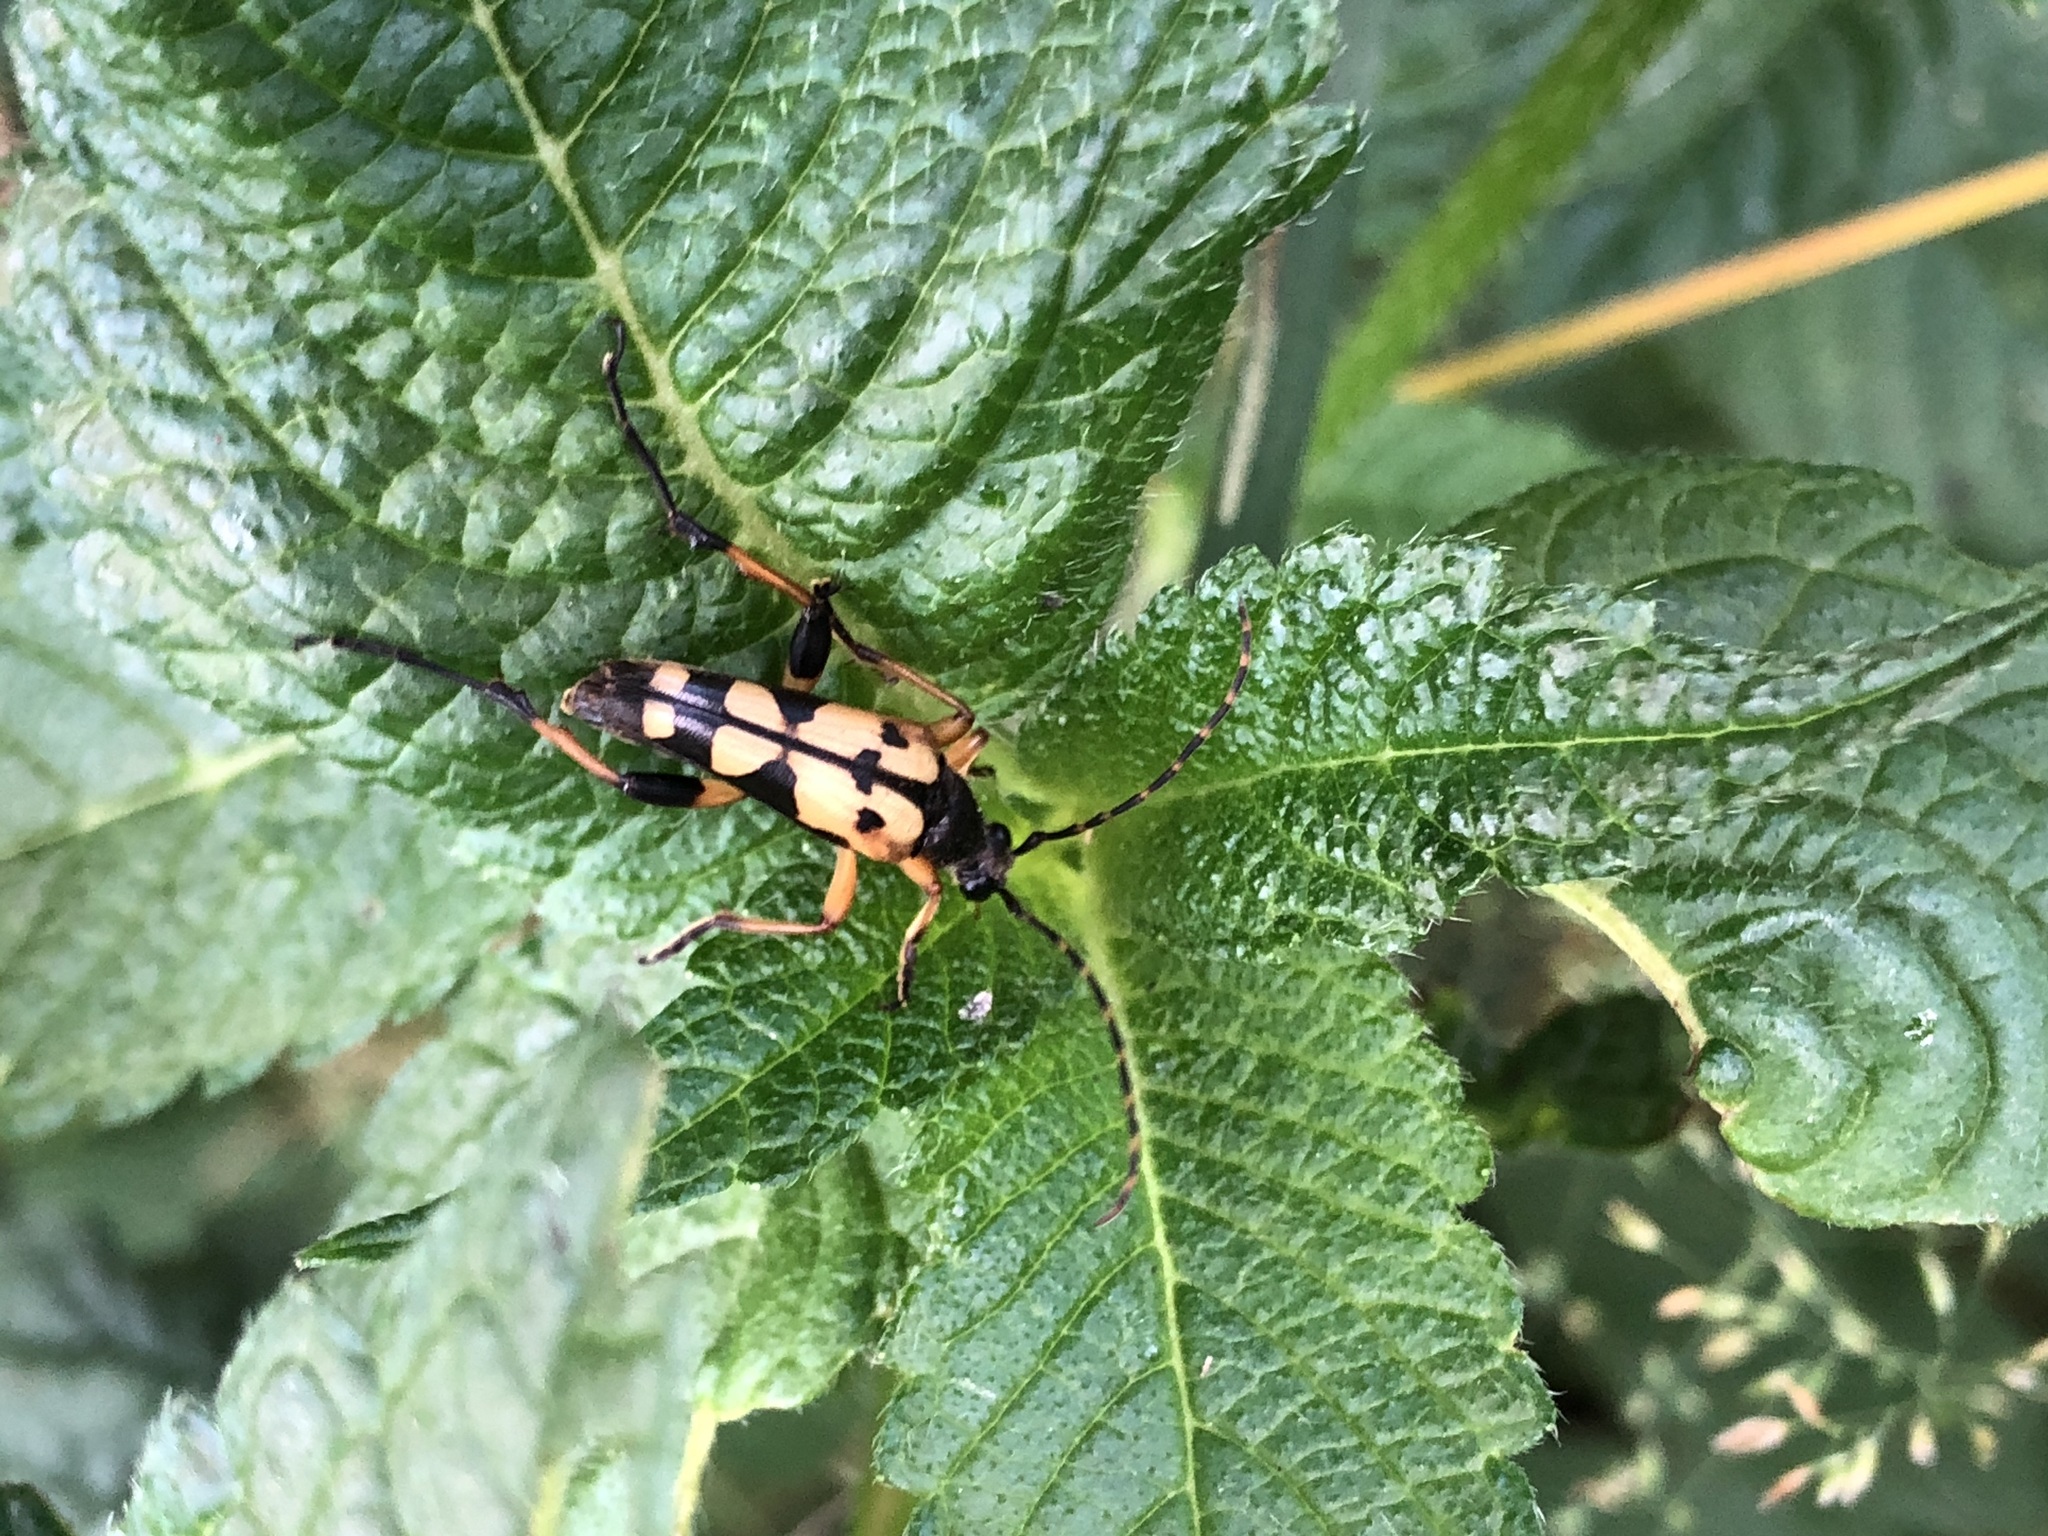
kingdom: Animalia
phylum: Arthropoda
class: Insecta
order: Coleoptera
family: Cerambycidae
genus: Rutpela
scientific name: Rutpela maculata
